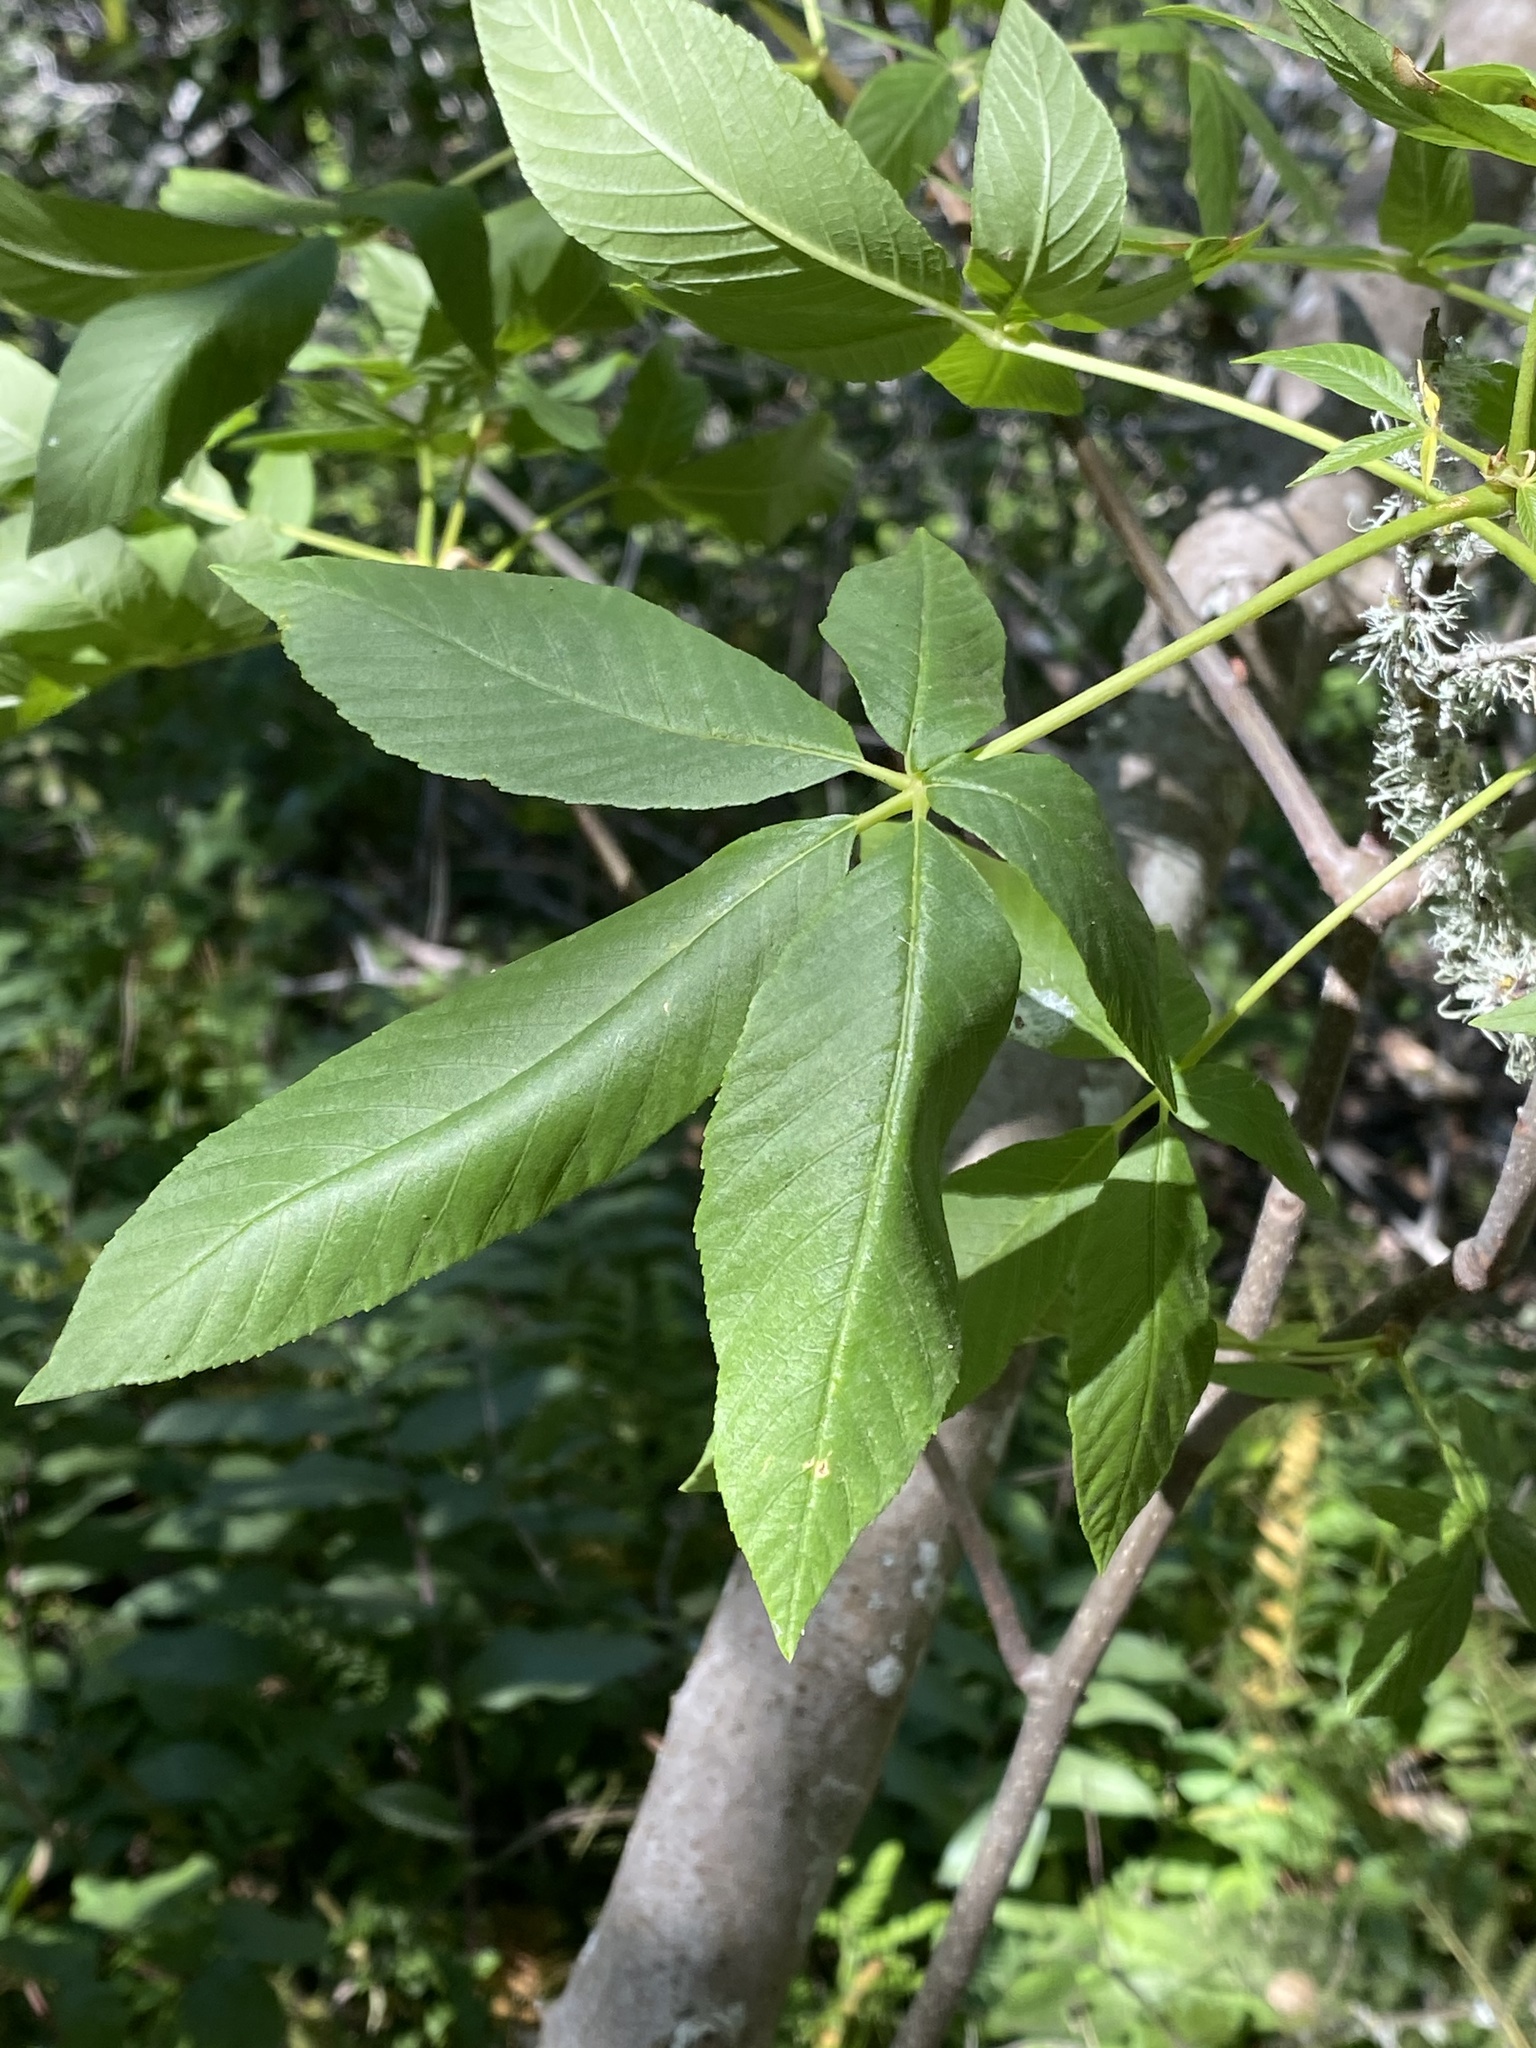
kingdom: Plantae
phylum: Tracheophyta
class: Magnoliopsida
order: Sapindales
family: Sapindaceae
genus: Aesculus
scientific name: Aesculus californica
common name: California buckeye
